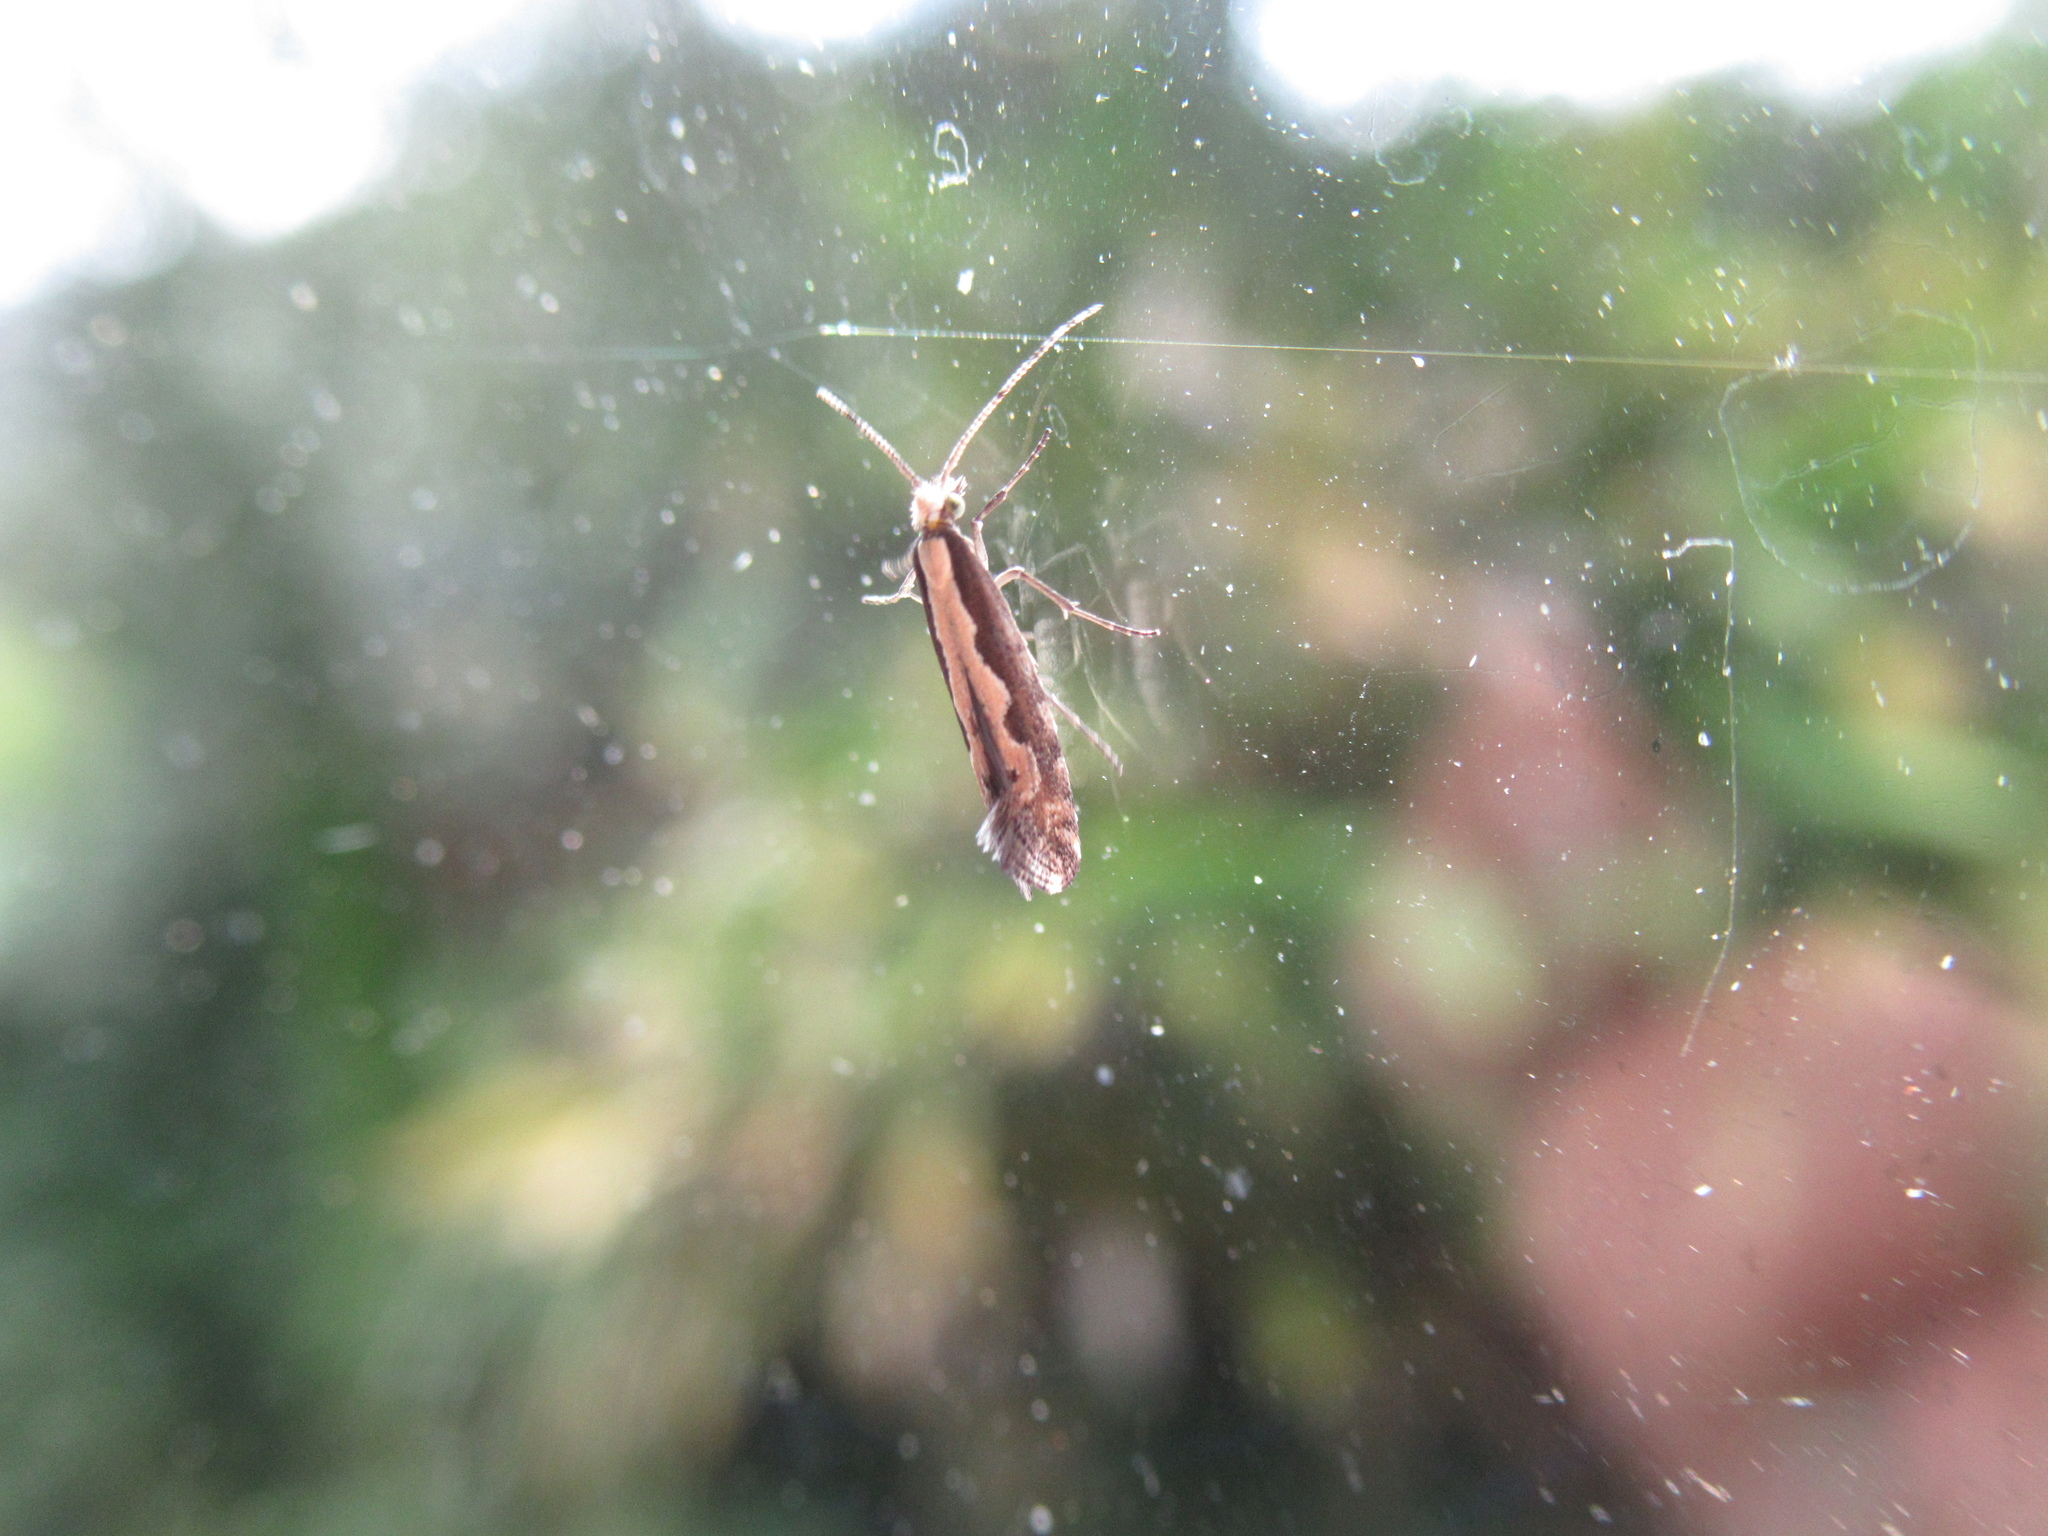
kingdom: Animalia
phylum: Arthropoda
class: Insecta
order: Lepidoptera
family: Plutellidae
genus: Plutella
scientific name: Plutella xylostella
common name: Diamond-back moth
